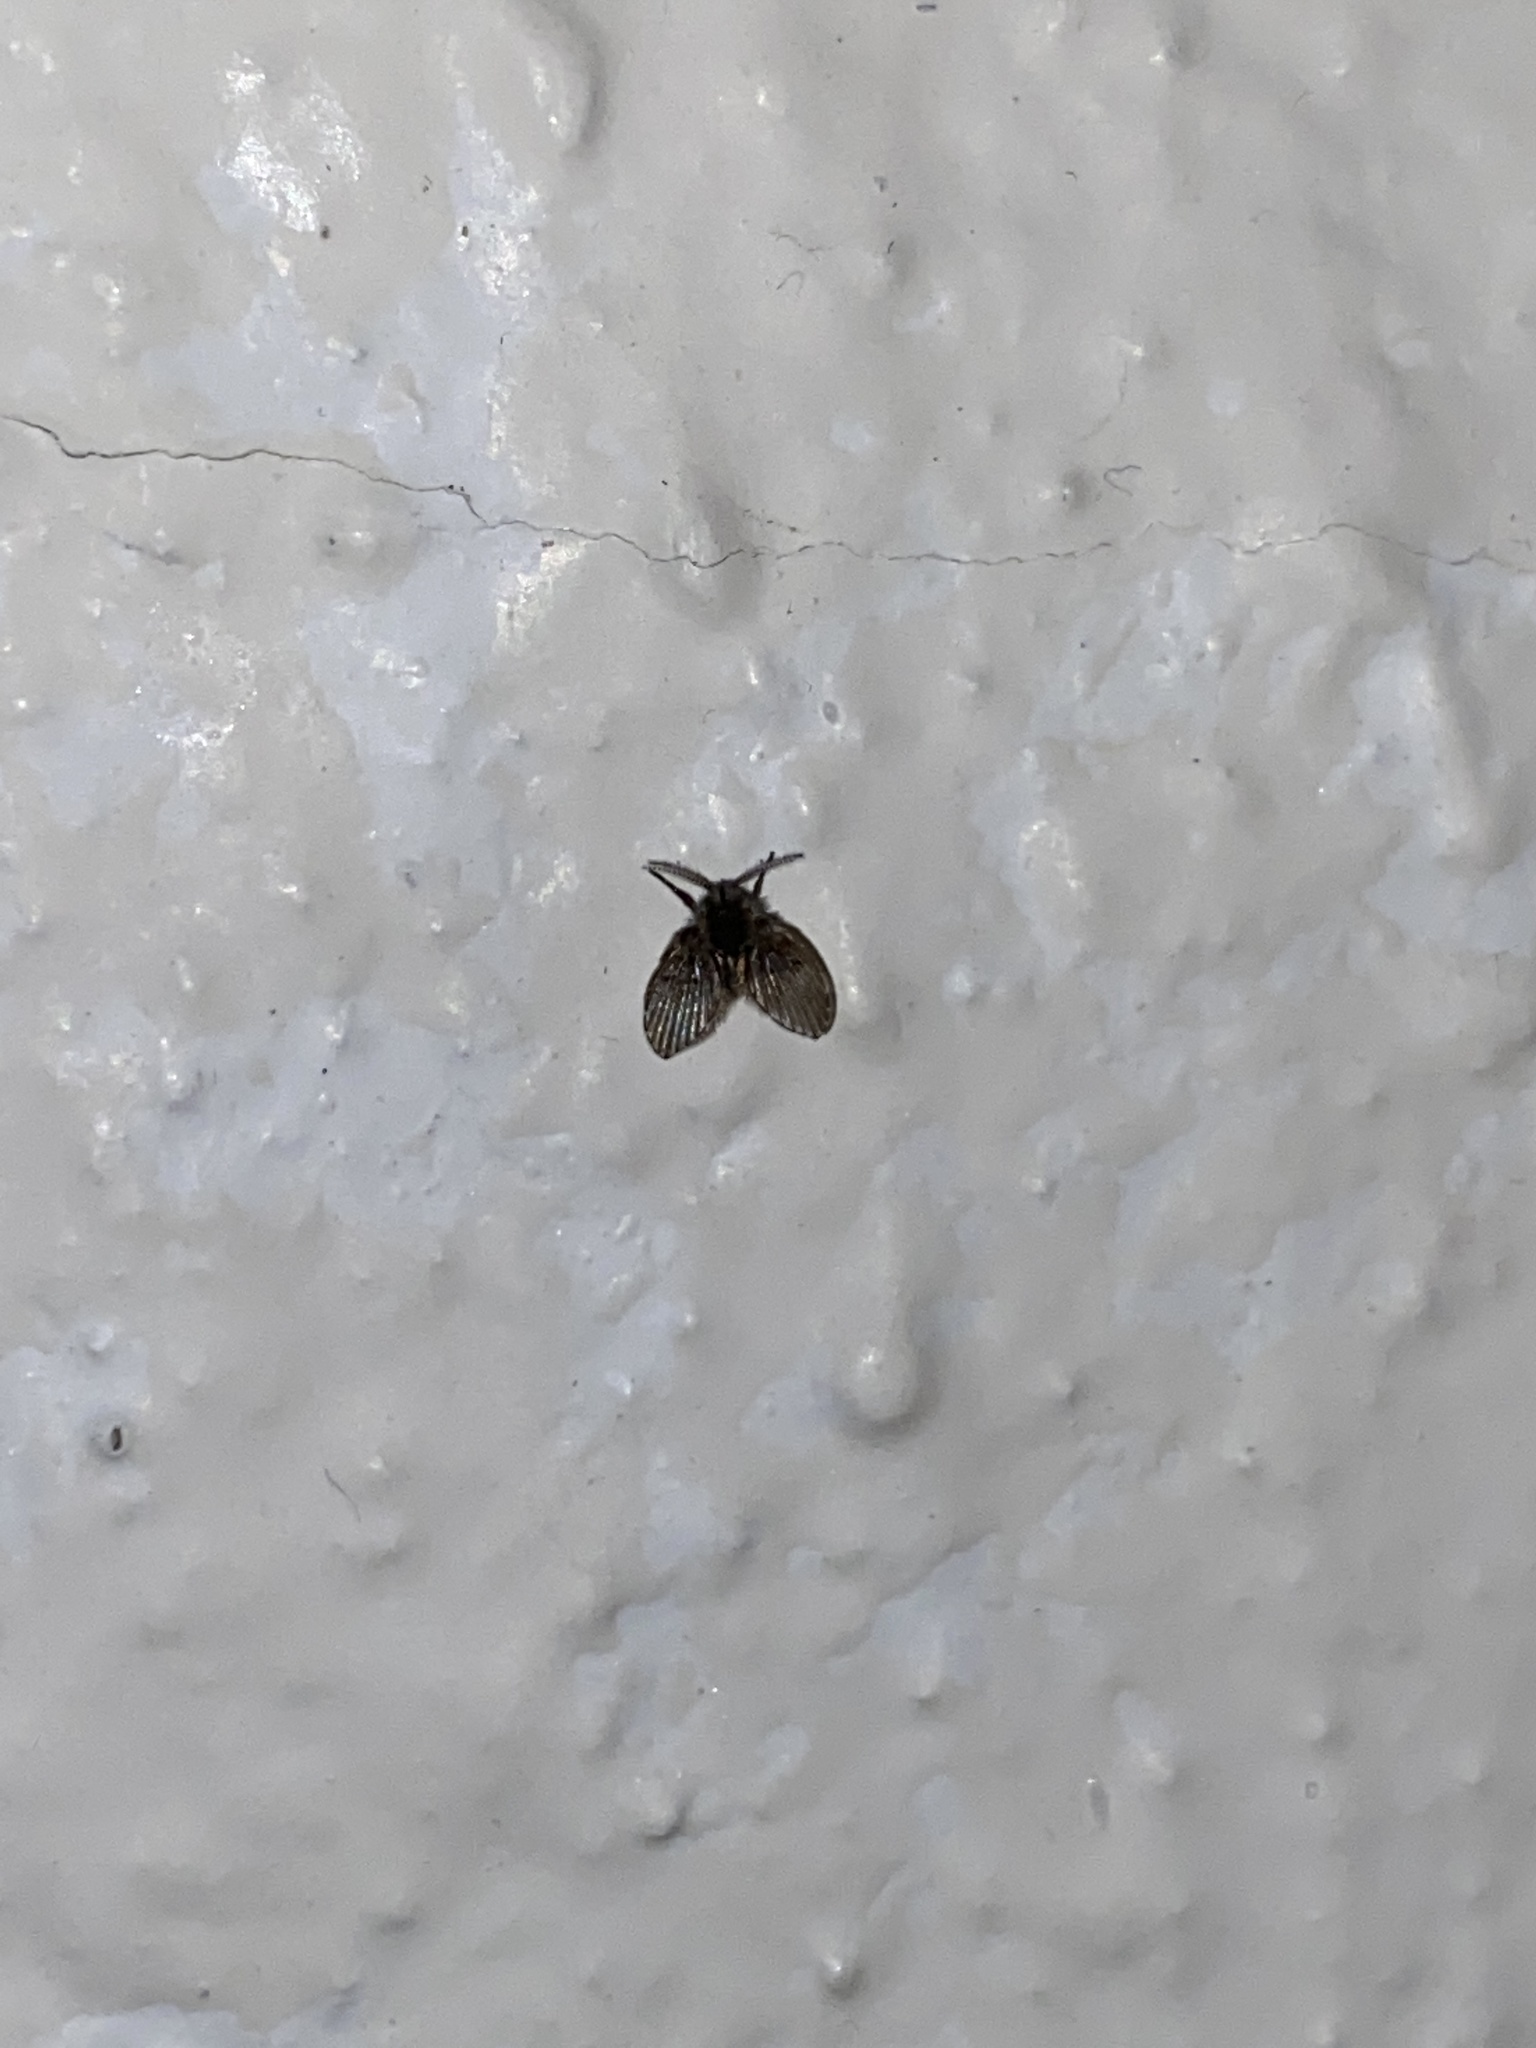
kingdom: Animalia
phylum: Arthropoda
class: Insecta
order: Diptera
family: Psychodidae
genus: Clogmia
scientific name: Clogmia albipunctatus
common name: White-spotted moth fly
